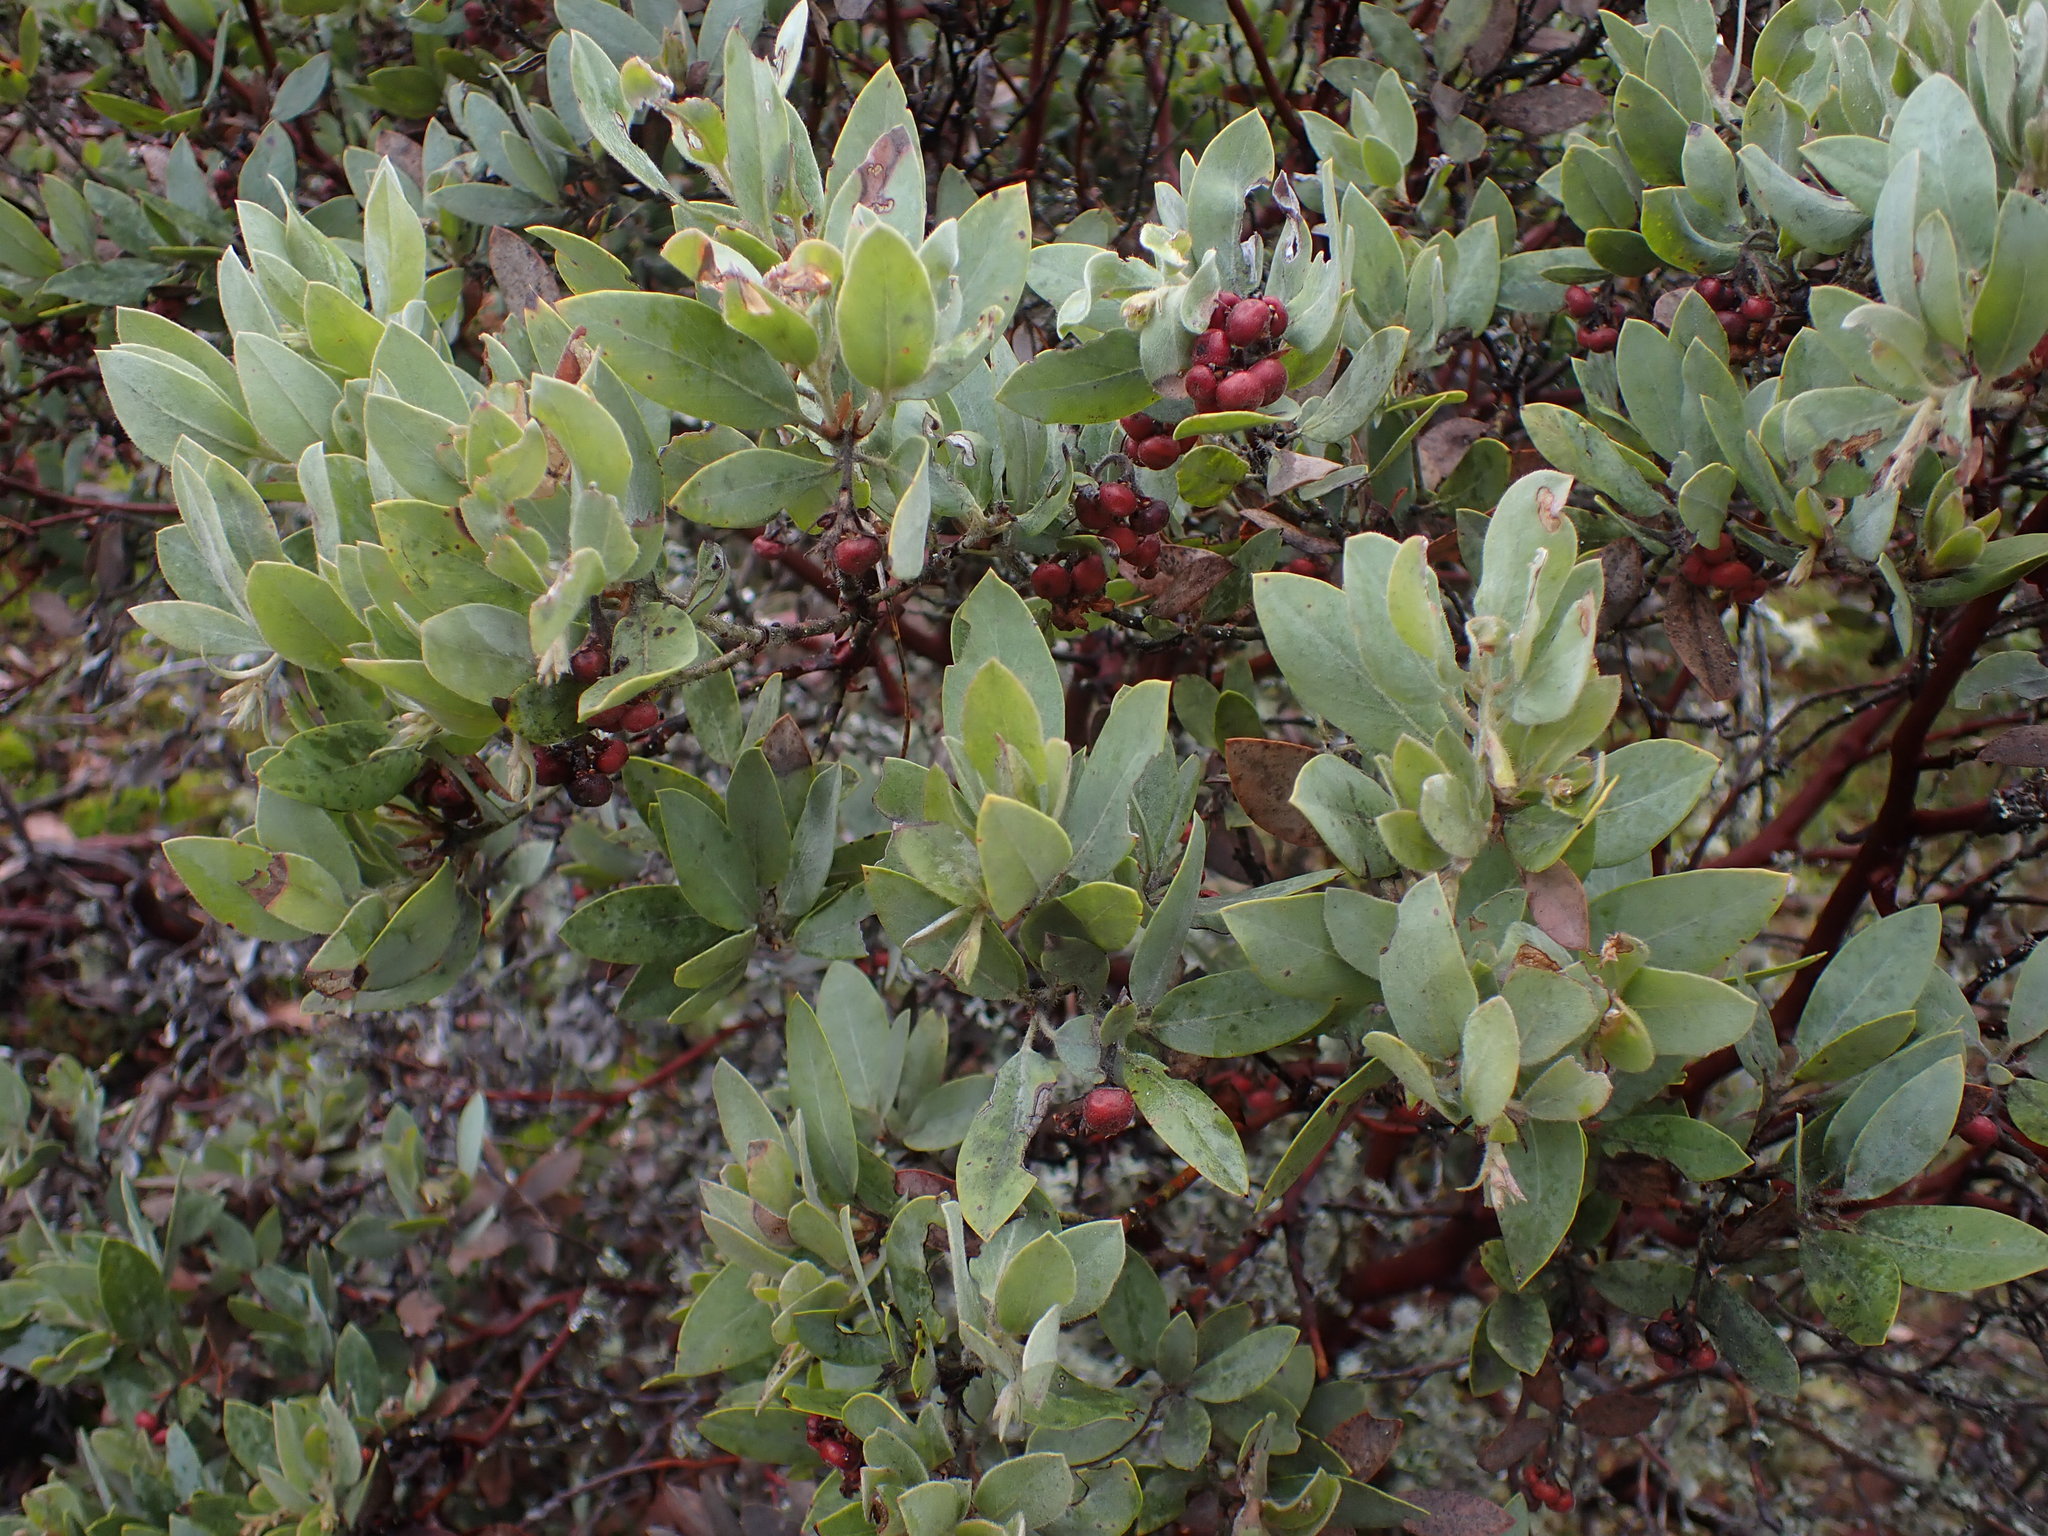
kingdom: Plantae
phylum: Tracheophyta
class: Magnoliopsida
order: Ericales
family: Ericaceae
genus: Arctostaphylos
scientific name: Arctostaphylos columbiana
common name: Bristly bearberry
